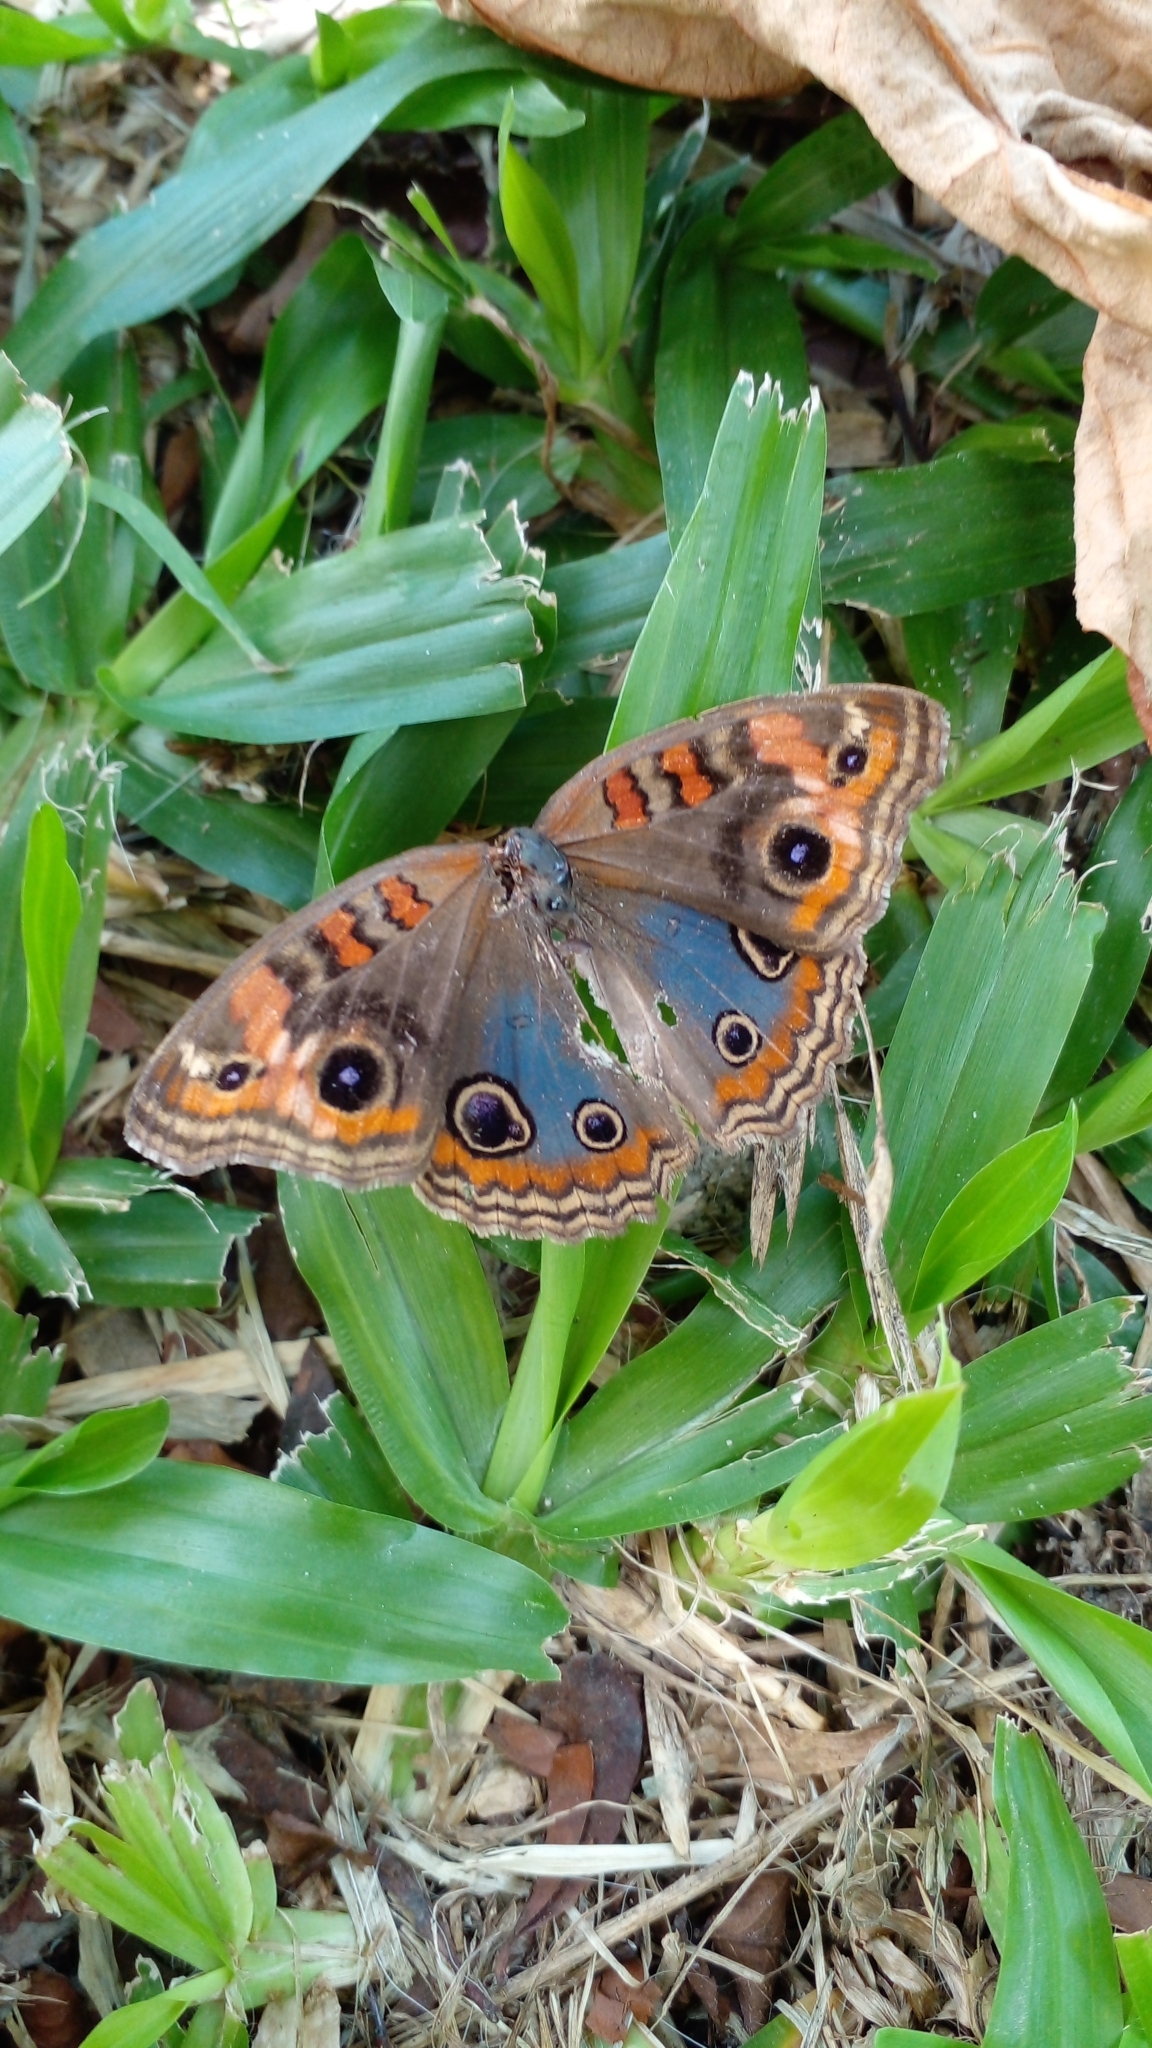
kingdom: Animalia
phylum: Arthropoda
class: Insecta
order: Lepidoptera
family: Nymphalidae
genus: Junonia
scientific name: Junonia lavinia
